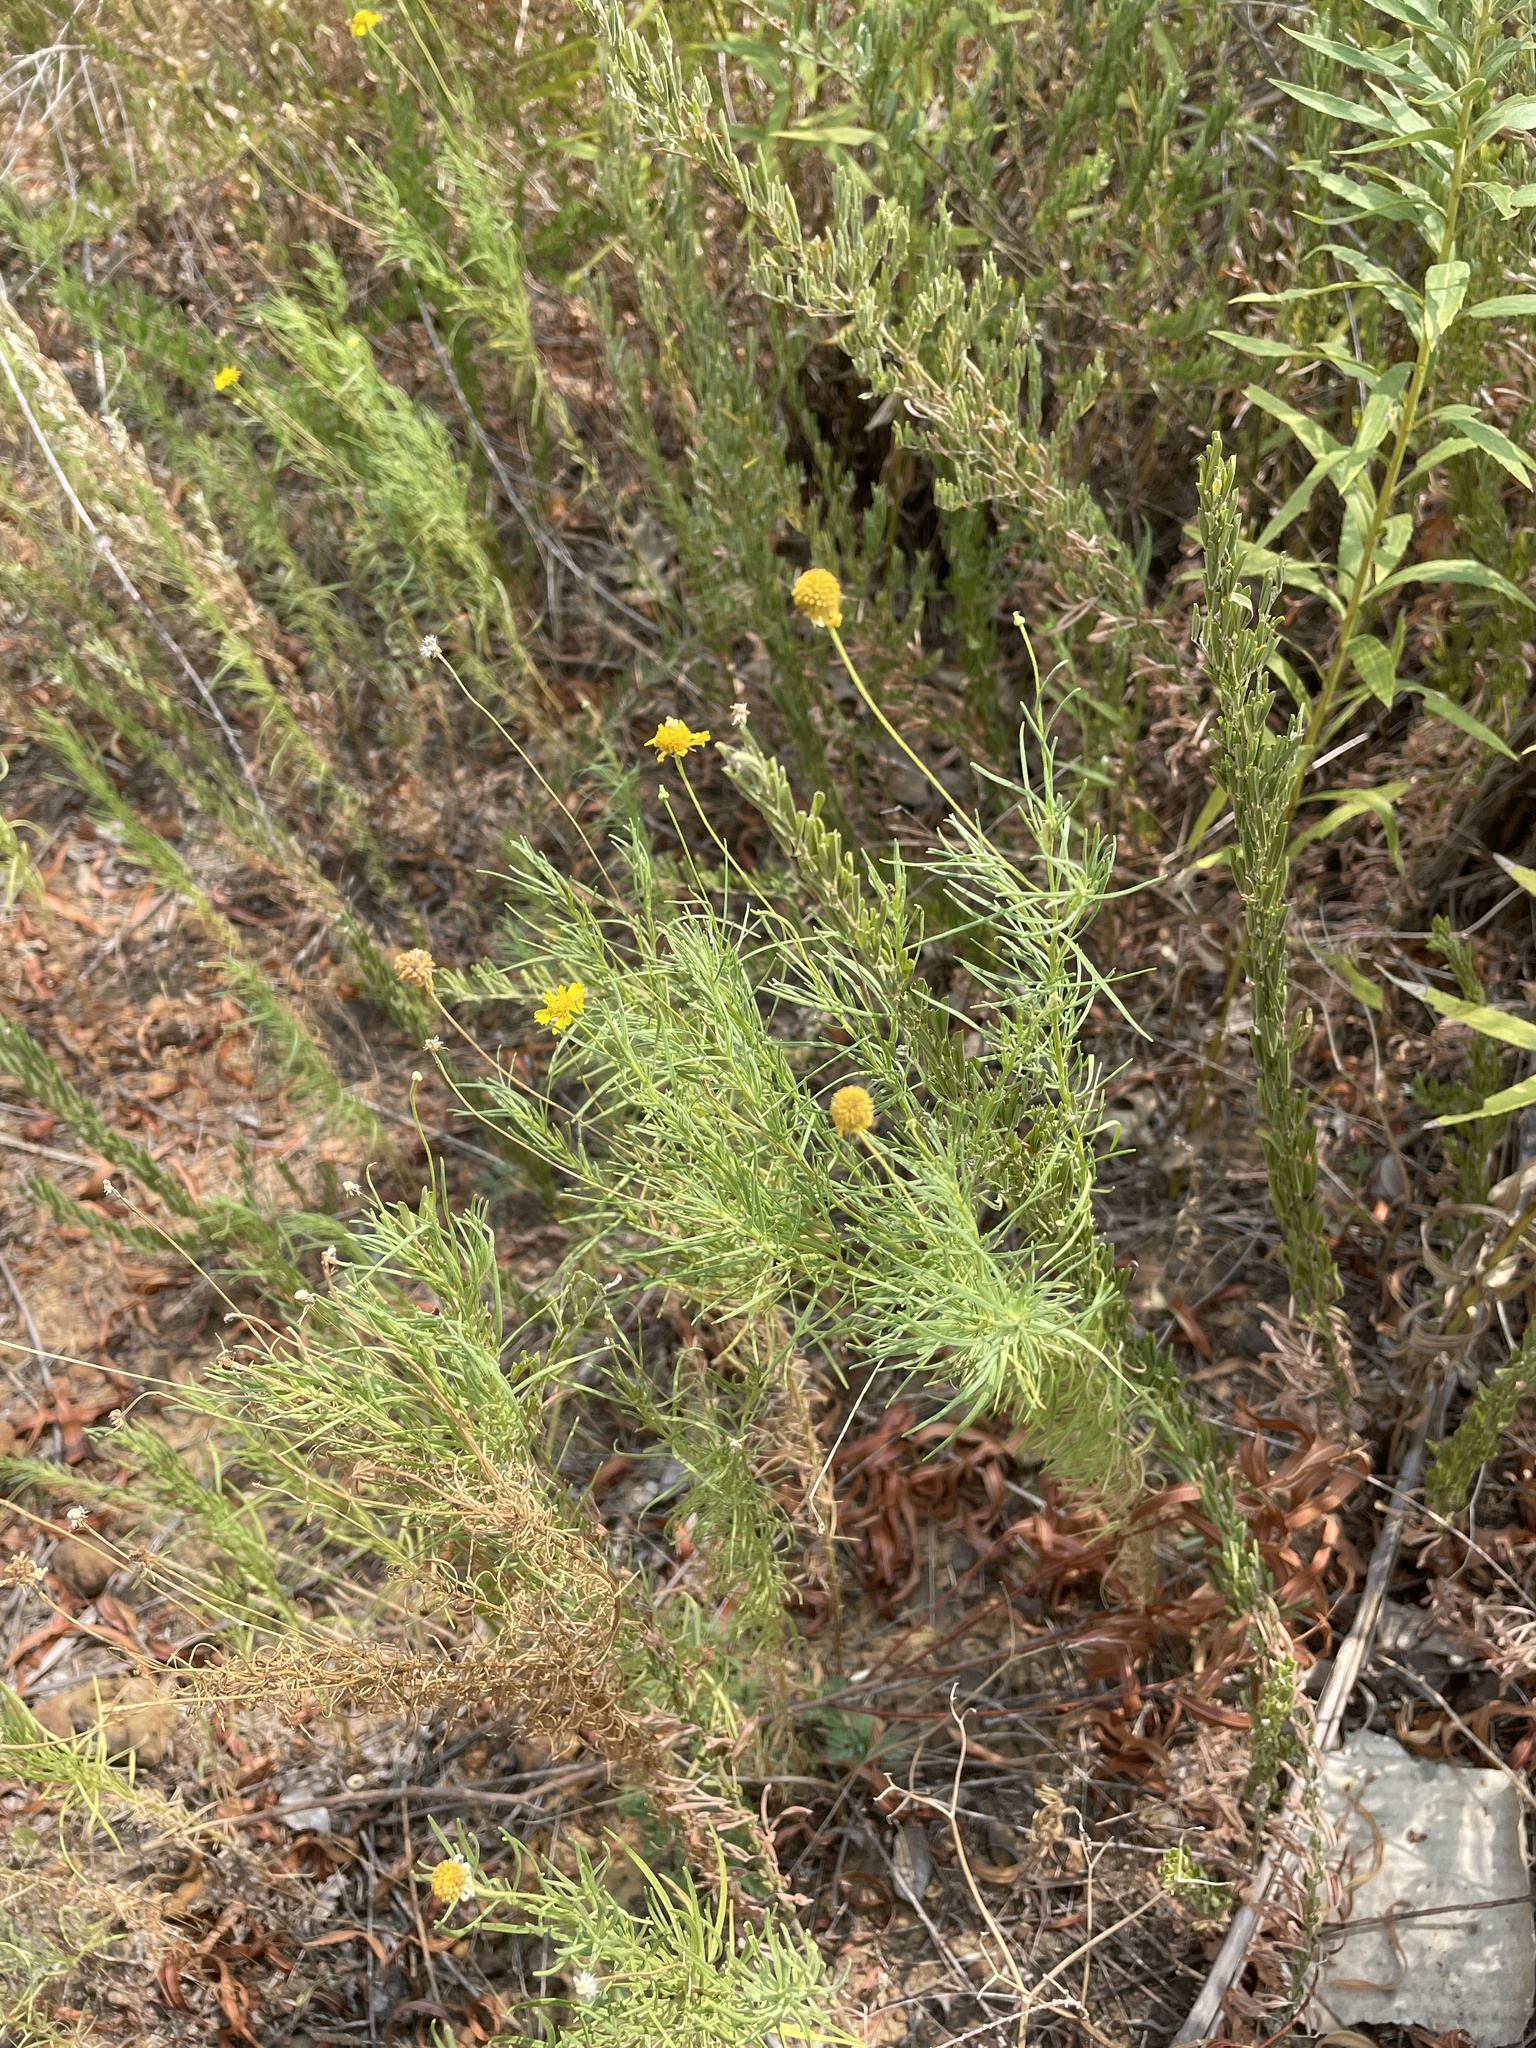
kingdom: Plantae
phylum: Tracheophyta
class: Magnoliopsida
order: Asterales
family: Asteraceae
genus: Helenium
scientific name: Helenium amarum
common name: Bitter sneezeweed
